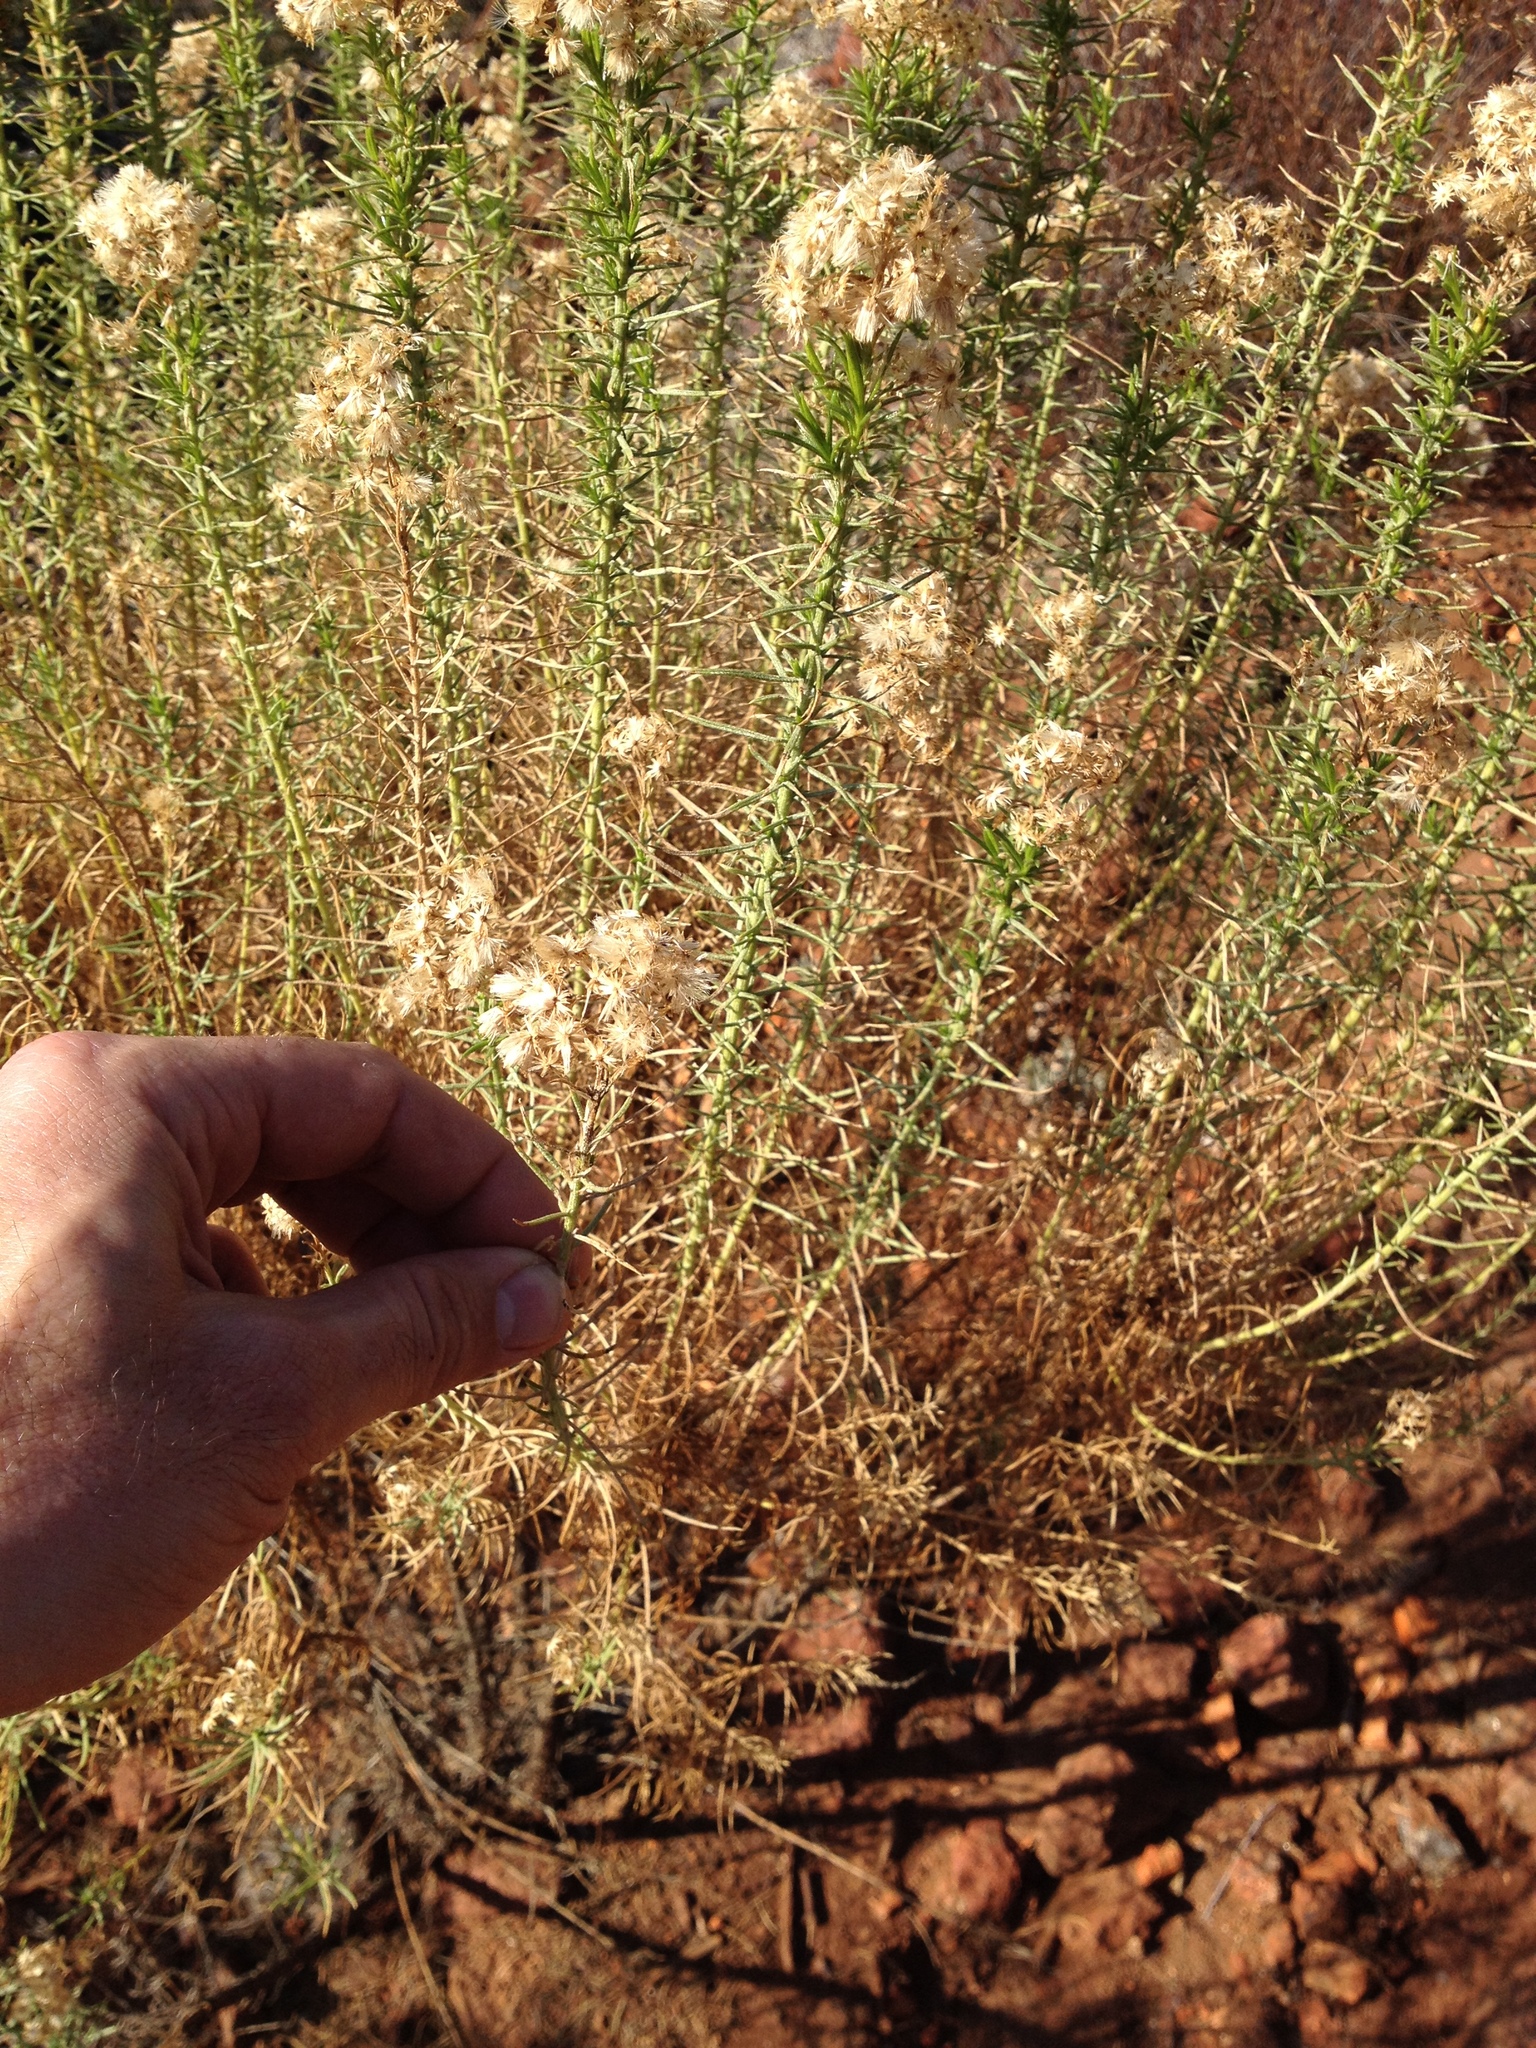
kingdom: Plantae
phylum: Tracheophyta
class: Magnoliopsida
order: Asterales
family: Asteraceae
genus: Ericameria
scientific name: Ericameria arborescens
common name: Goldenfleece
